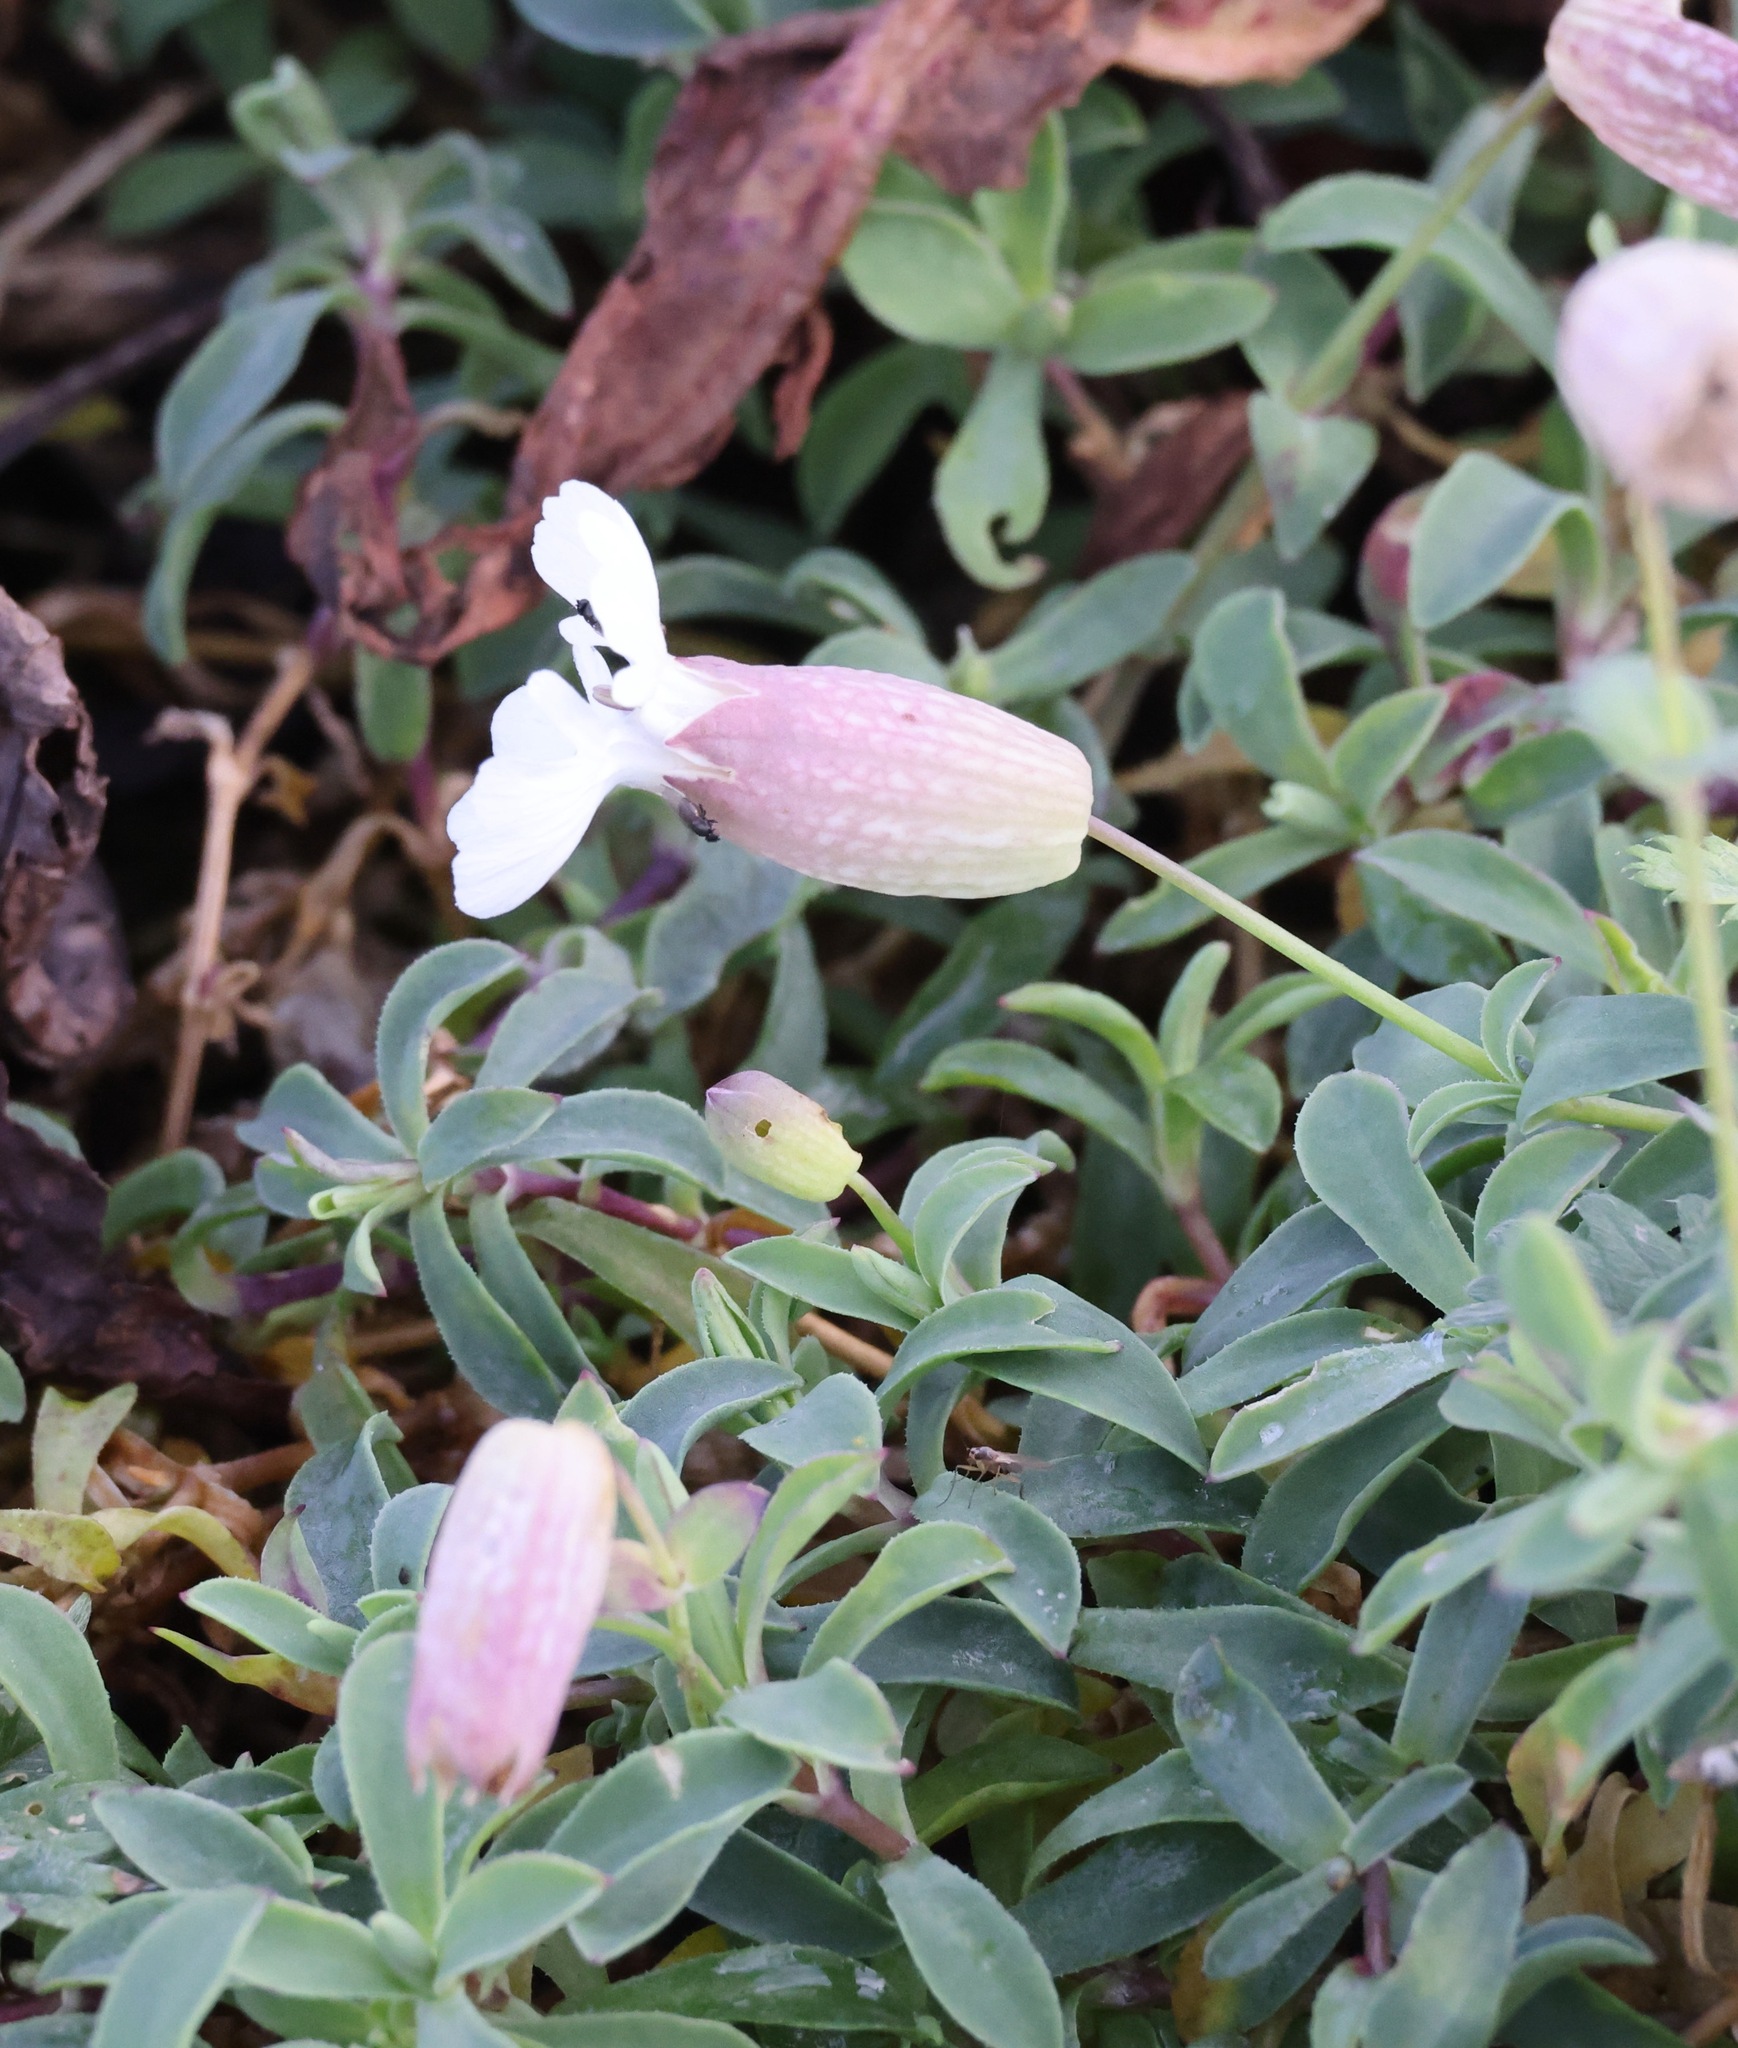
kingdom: Plantae
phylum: Tracheophyta
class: Magnoliopsida
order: Caryophyllales
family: Caryophyllaceae
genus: Silene
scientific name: Silene uniflora
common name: Sea campion
